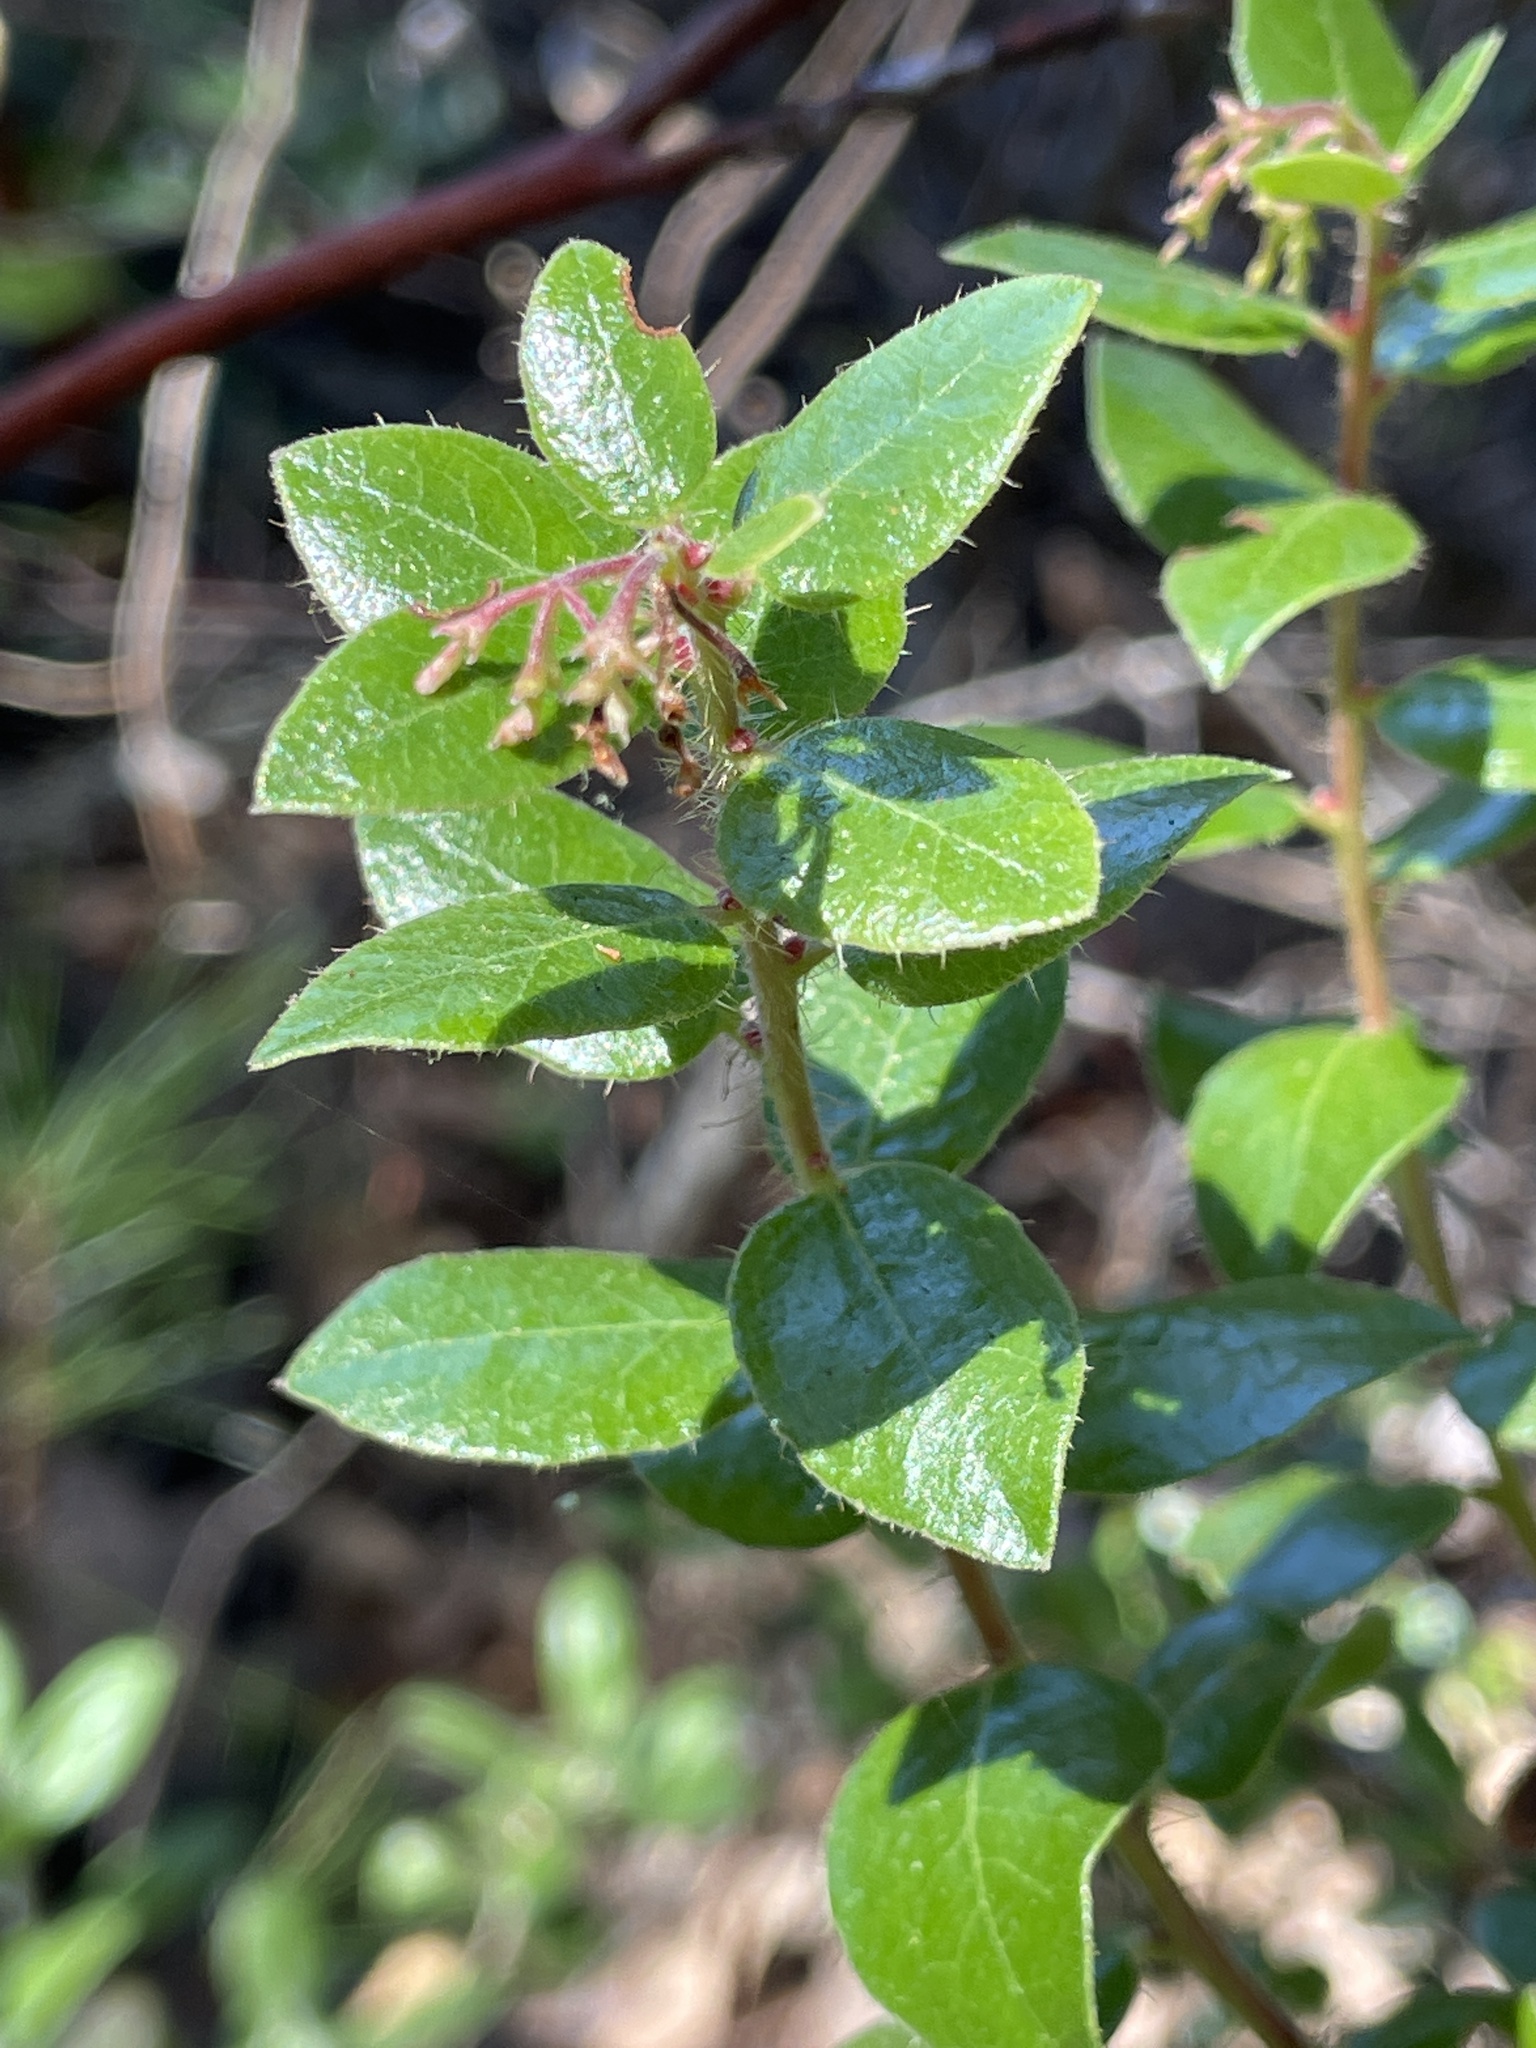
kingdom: Plantae
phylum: Tracheophyta
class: Magnoliopsida
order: Ericales
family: Ericaceae
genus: Arctostaphylos
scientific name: Arctostaphylos nummularia
